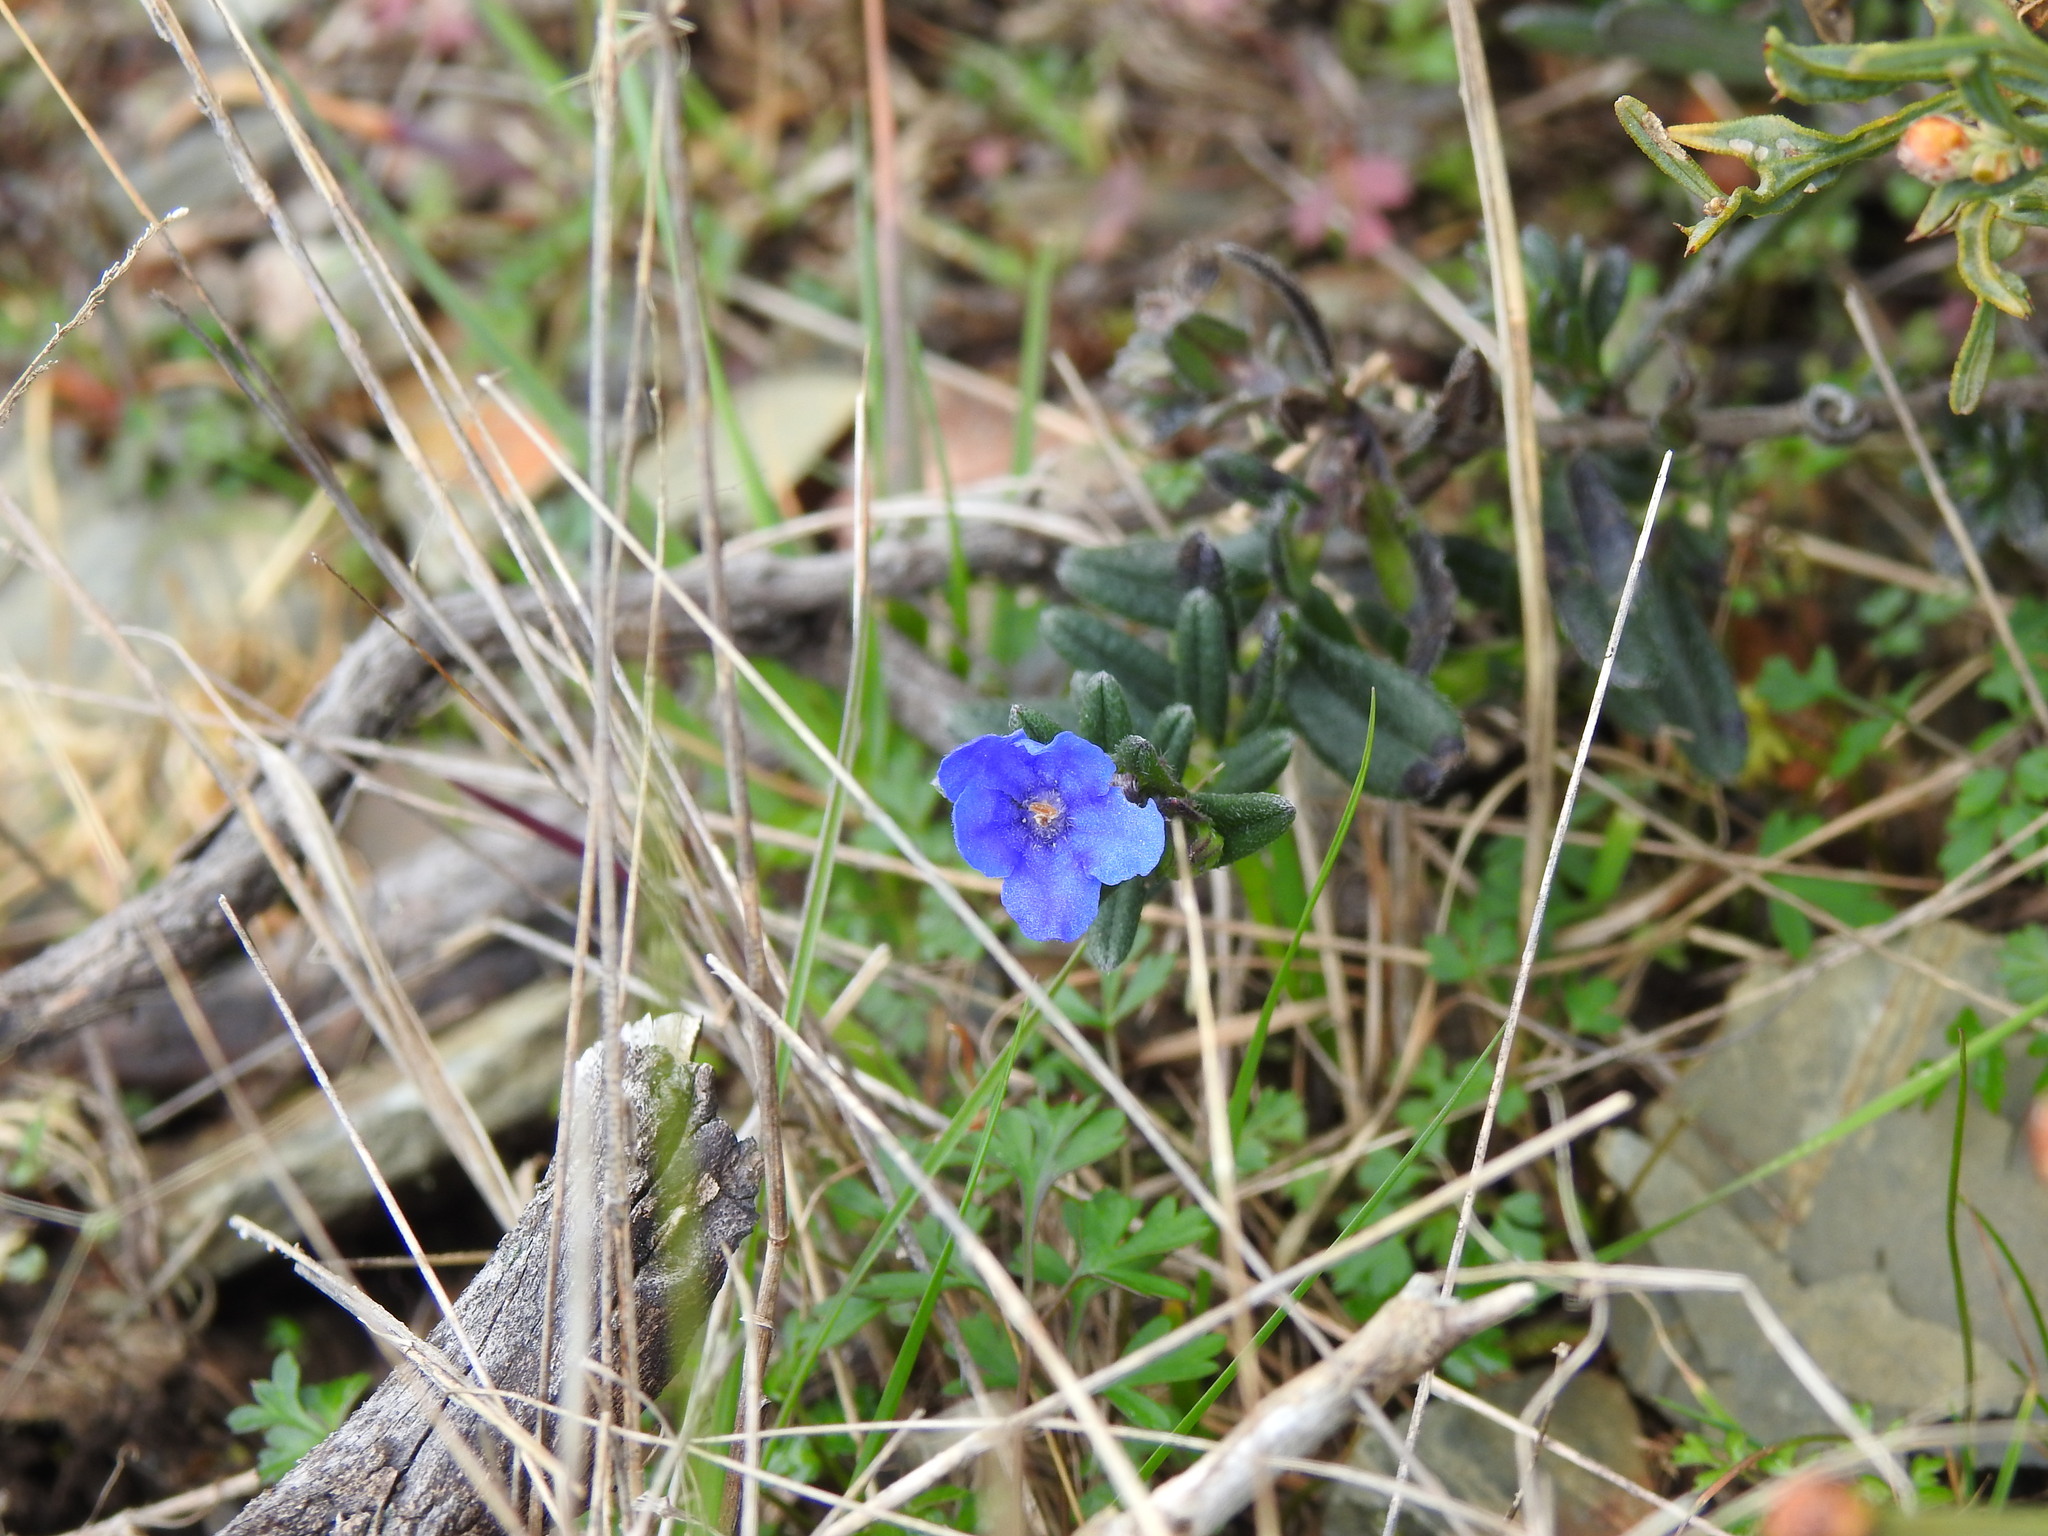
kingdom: Plantae
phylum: Tracheophyta
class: Magnoliopsida
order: Boraginales
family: Boraginaceae
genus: Glandora
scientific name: Glandora prostrata
